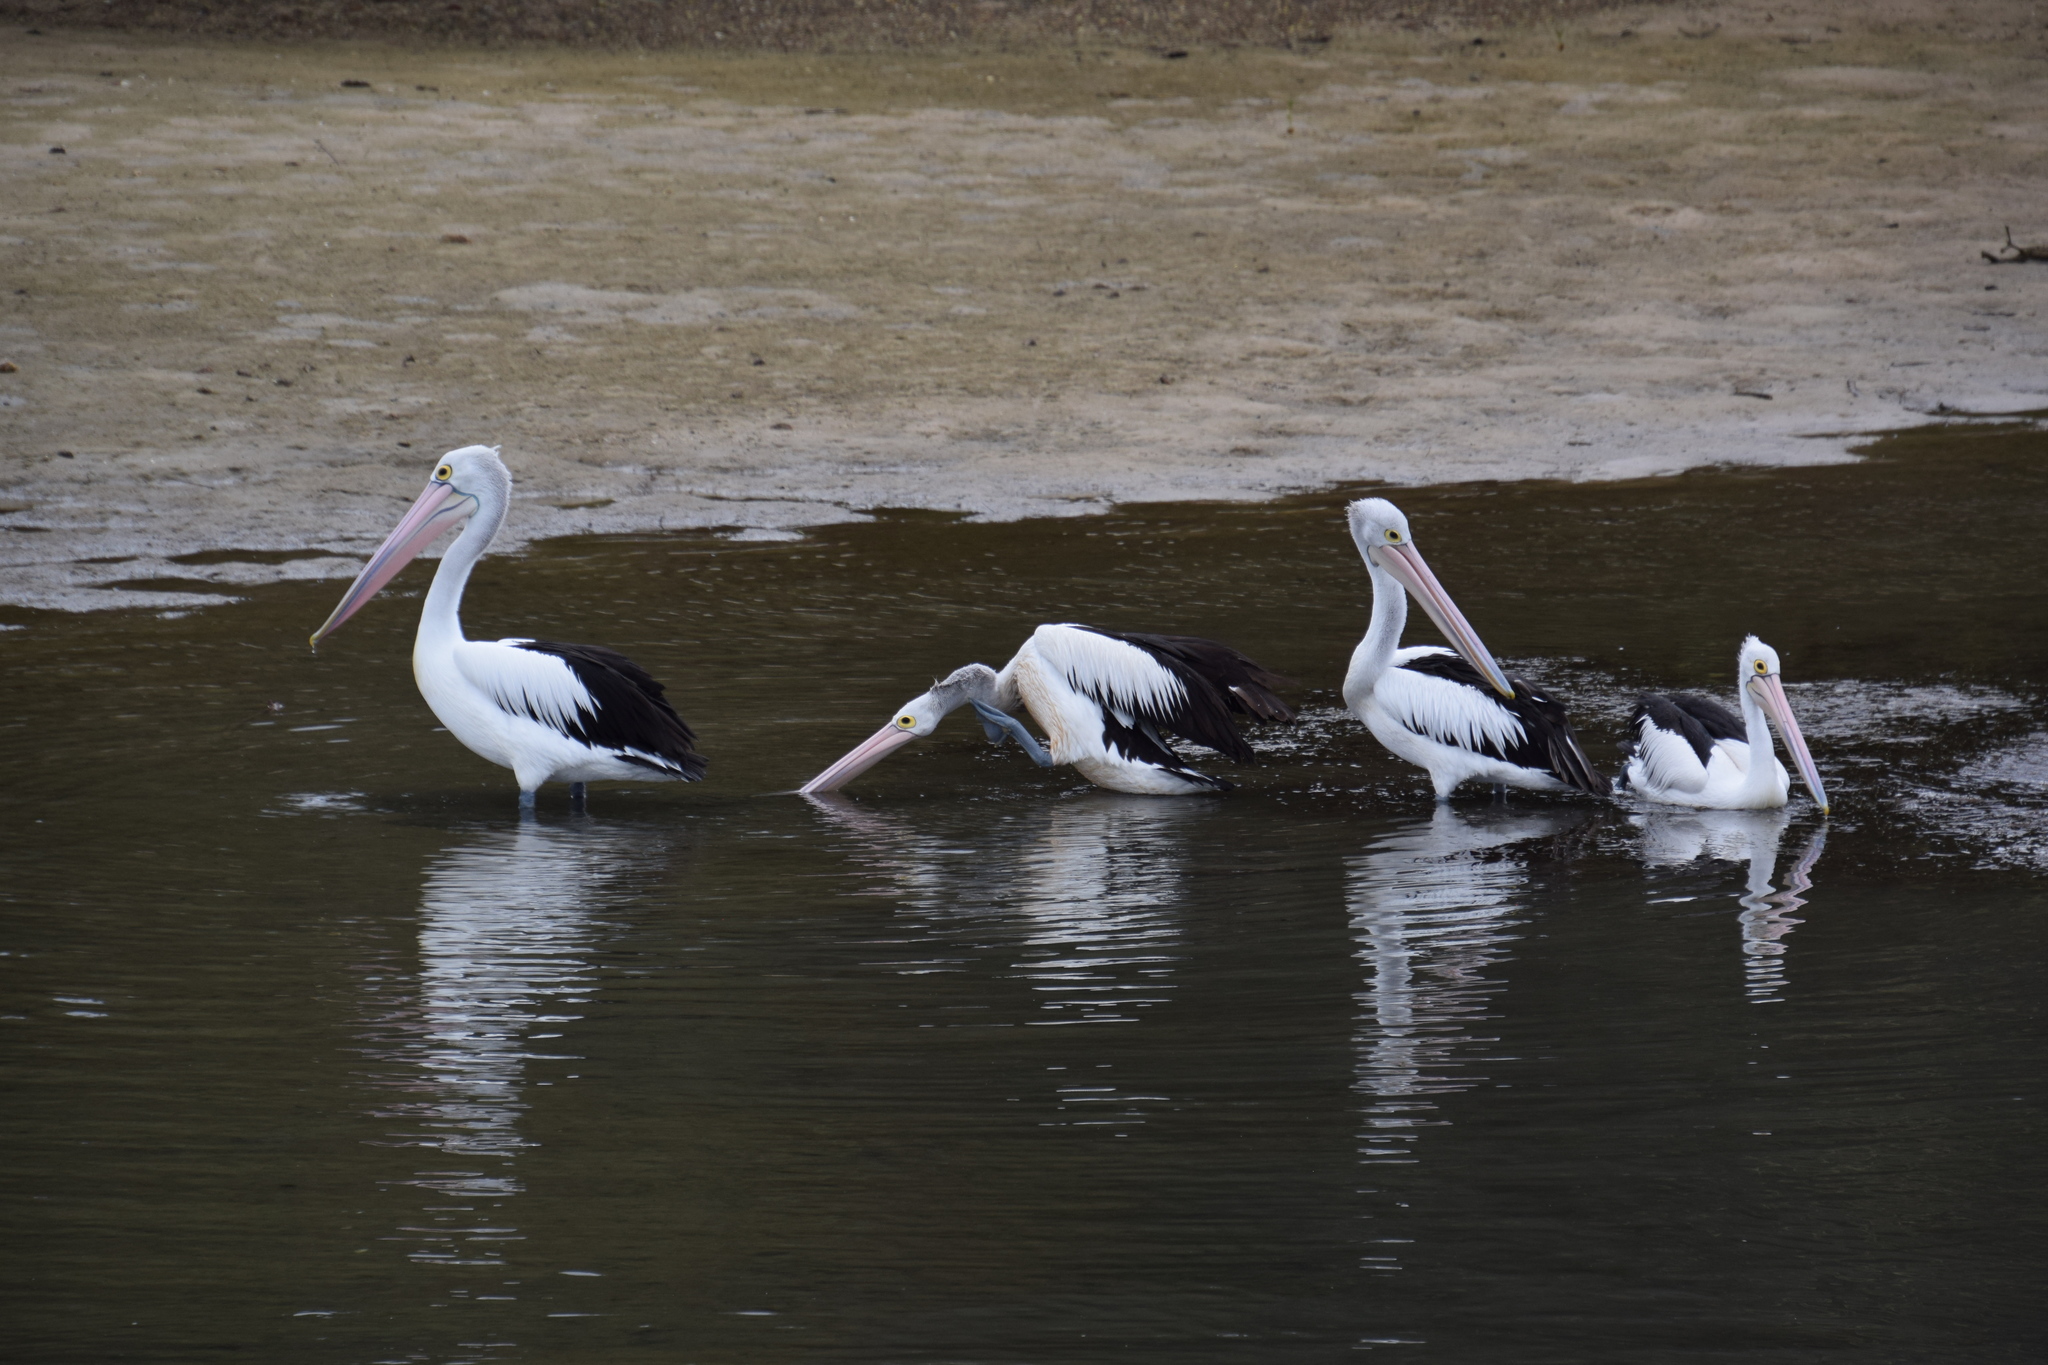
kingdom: Animalia
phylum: Chordata
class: Aves
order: Pelecaniformes
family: Pelecanidae
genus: Pelecanus
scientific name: Pelecanus conspicillatus
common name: Australian pelican
